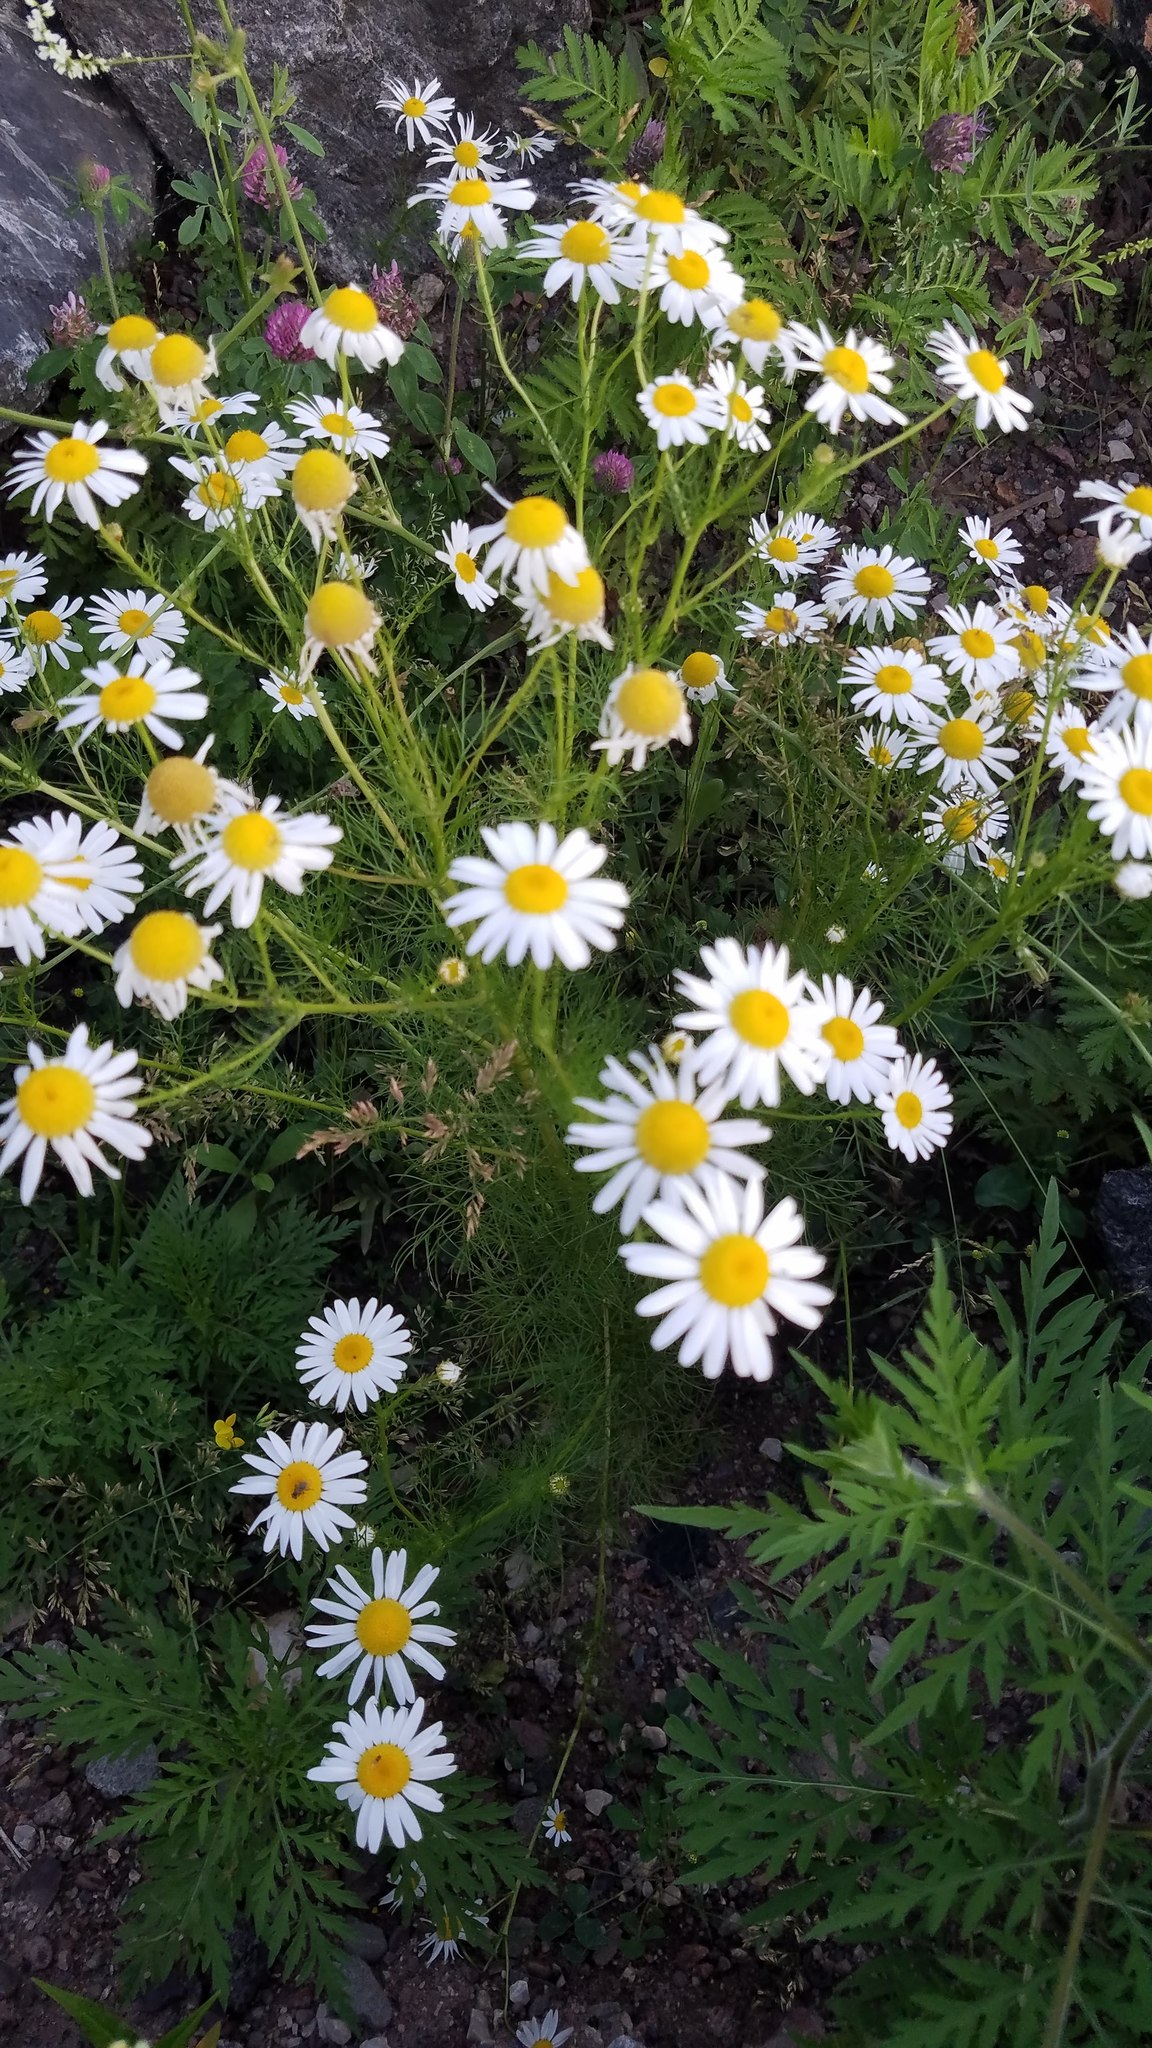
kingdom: Plantae
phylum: Tracheophyta
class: Magnoliopsida
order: Asterales
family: Asteraceae
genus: Tripleurospermum
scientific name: Tripleurospermum inodorum
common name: Scentless mayweed
